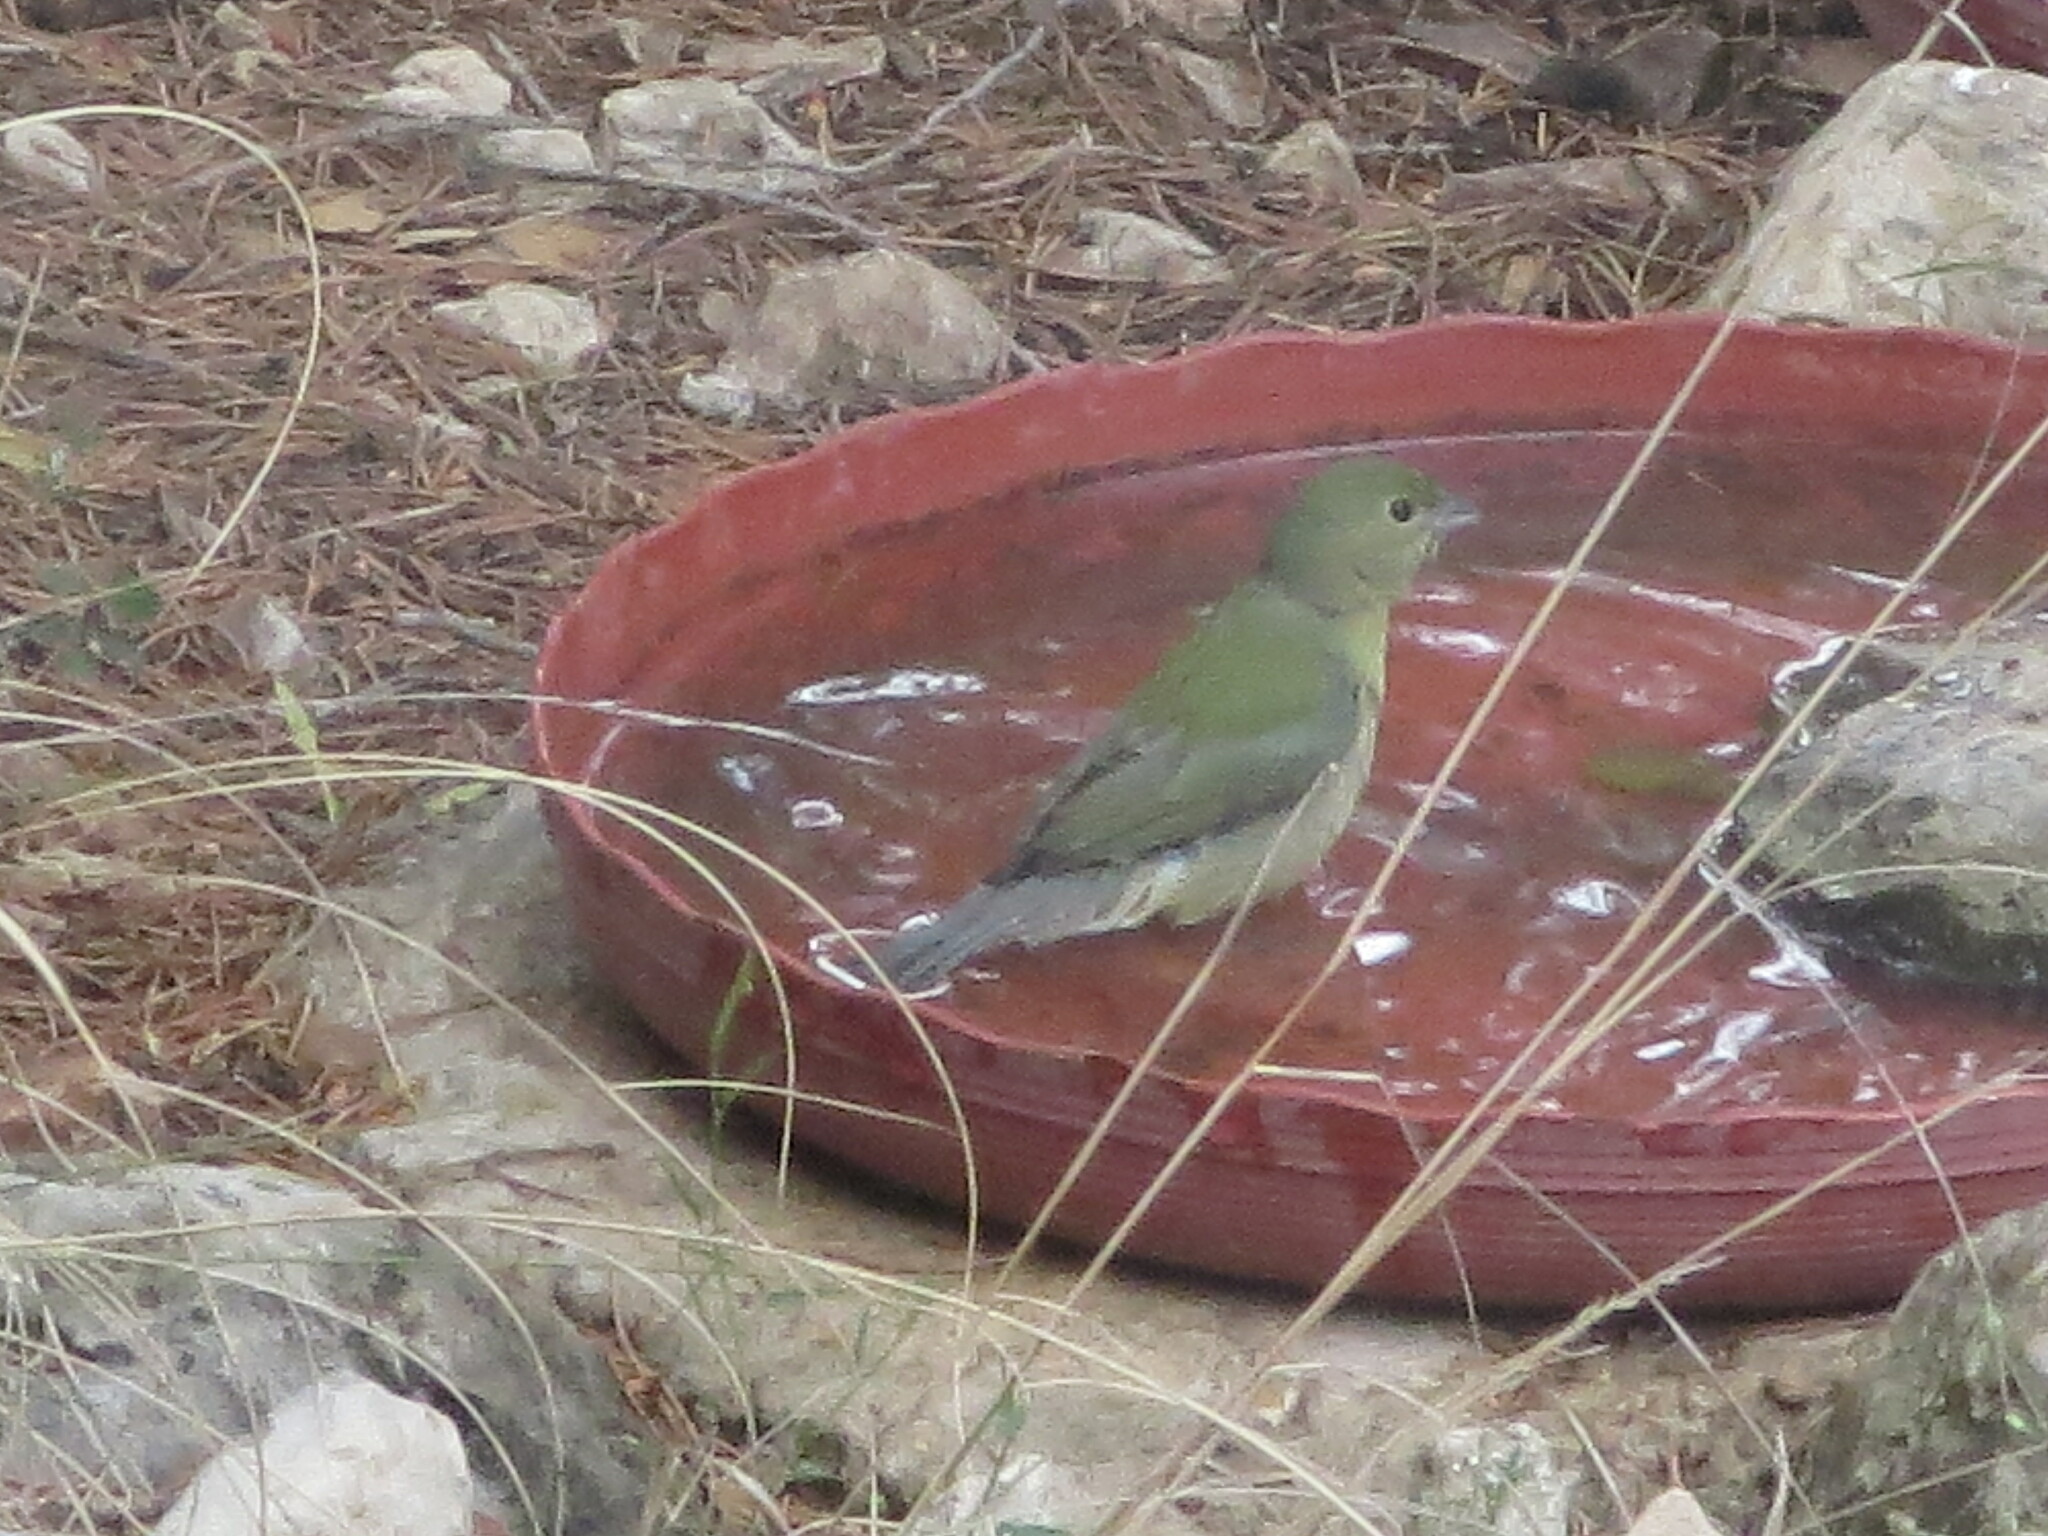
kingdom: Animalia
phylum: Chordata
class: Aves
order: Passeriformes
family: Cardinalidae
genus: Passerina
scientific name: Passerina ciris
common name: Painted bunting
